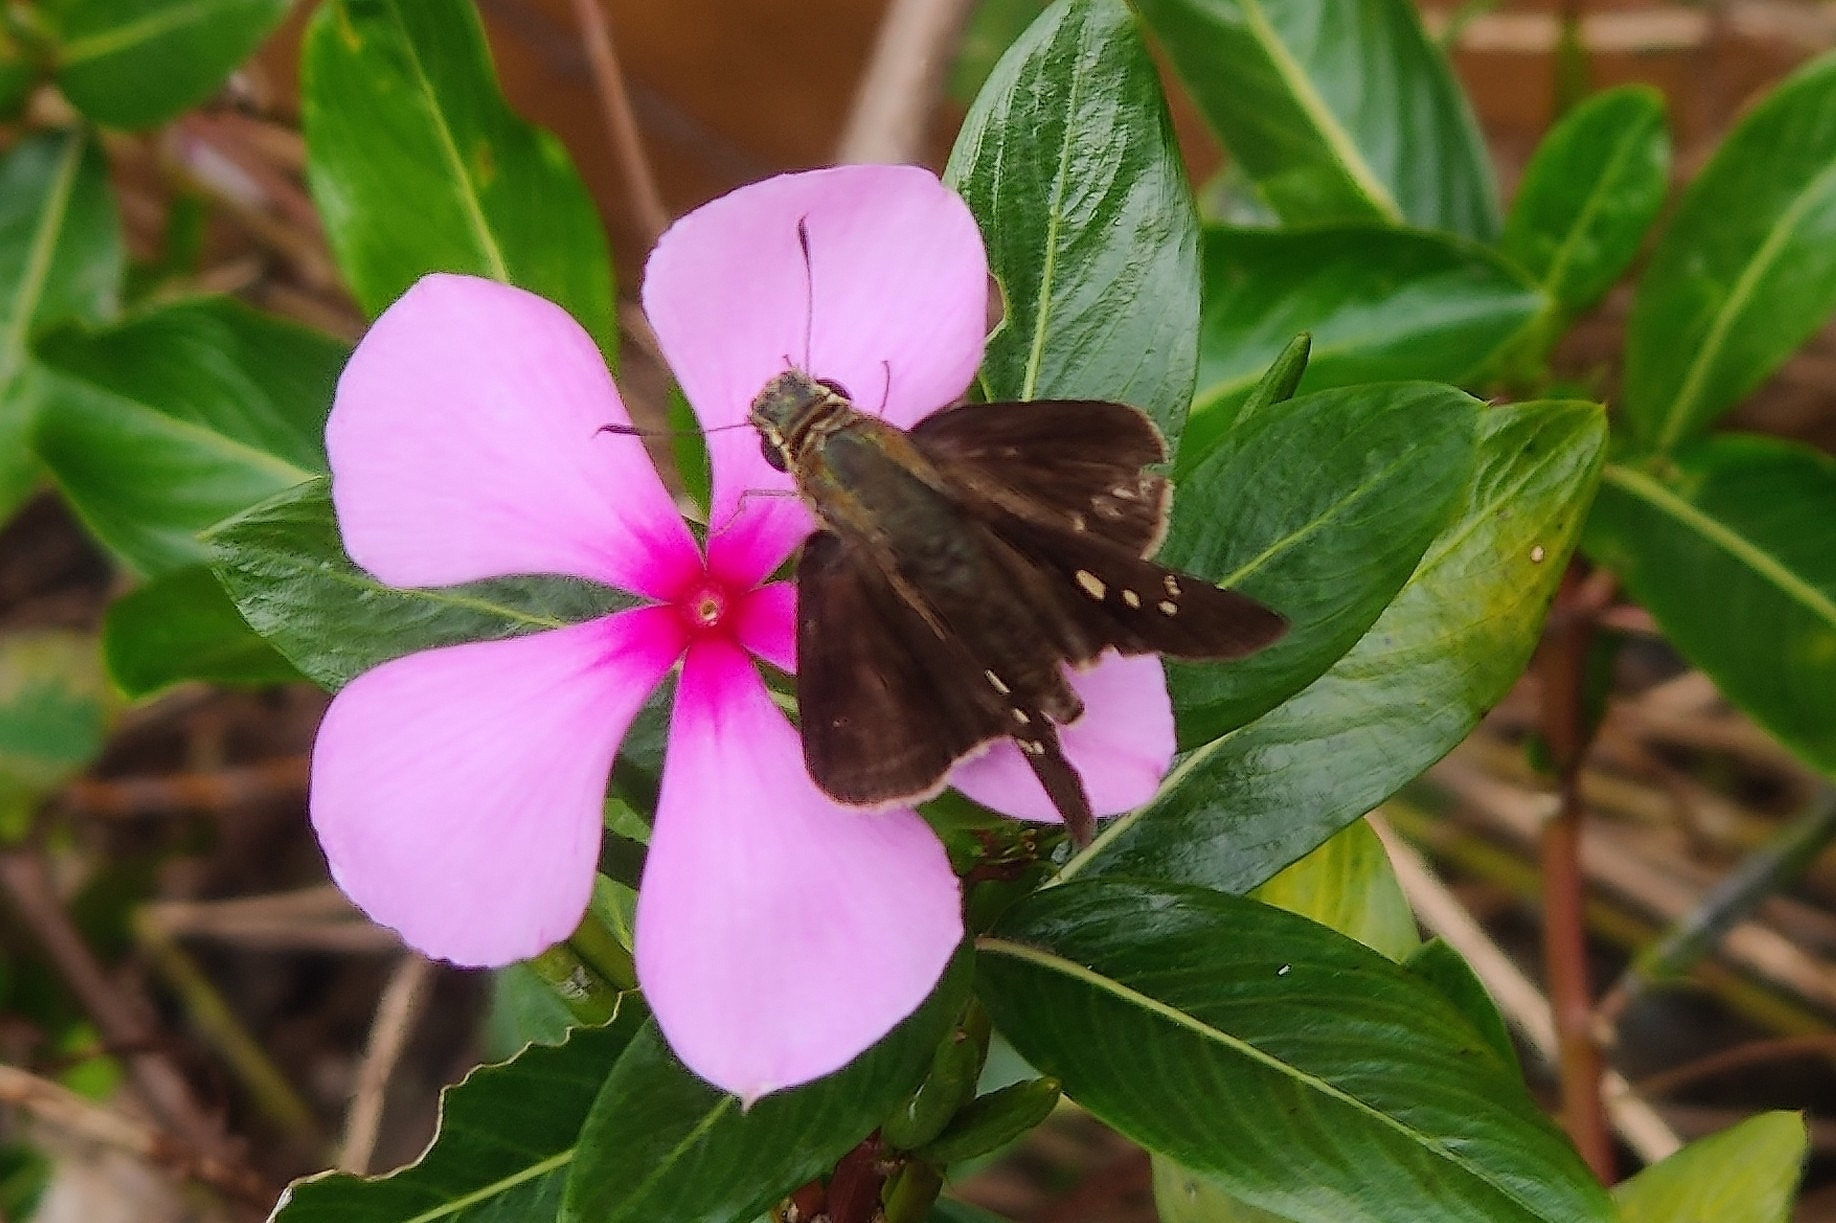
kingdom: Animalia
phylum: Arthropoda
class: Insecta
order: Lepidoptera
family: Hesperiidae
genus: Parnara
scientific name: Parnara naso
